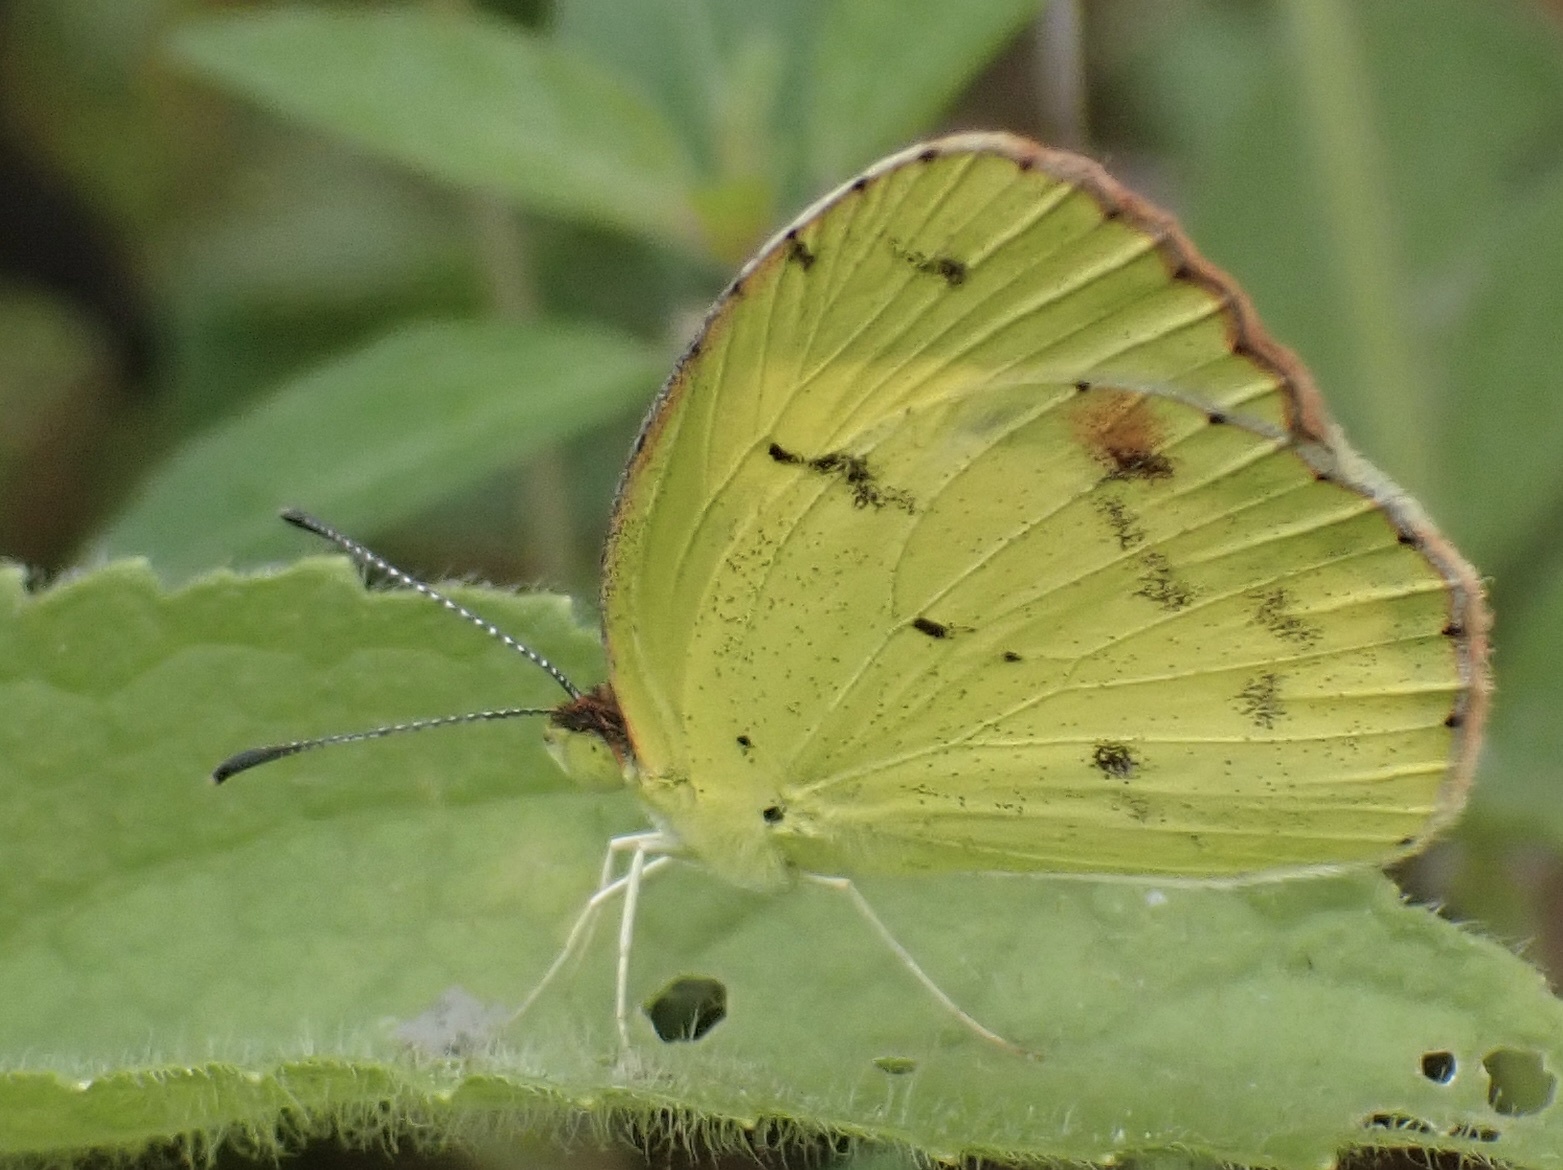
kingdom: Animalia
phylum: Arthropoda
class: Insecta
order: Lepidoptera
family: Pieridae
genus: Pyrisitia
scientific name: Pyrisitia lisa
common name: Little yellow
